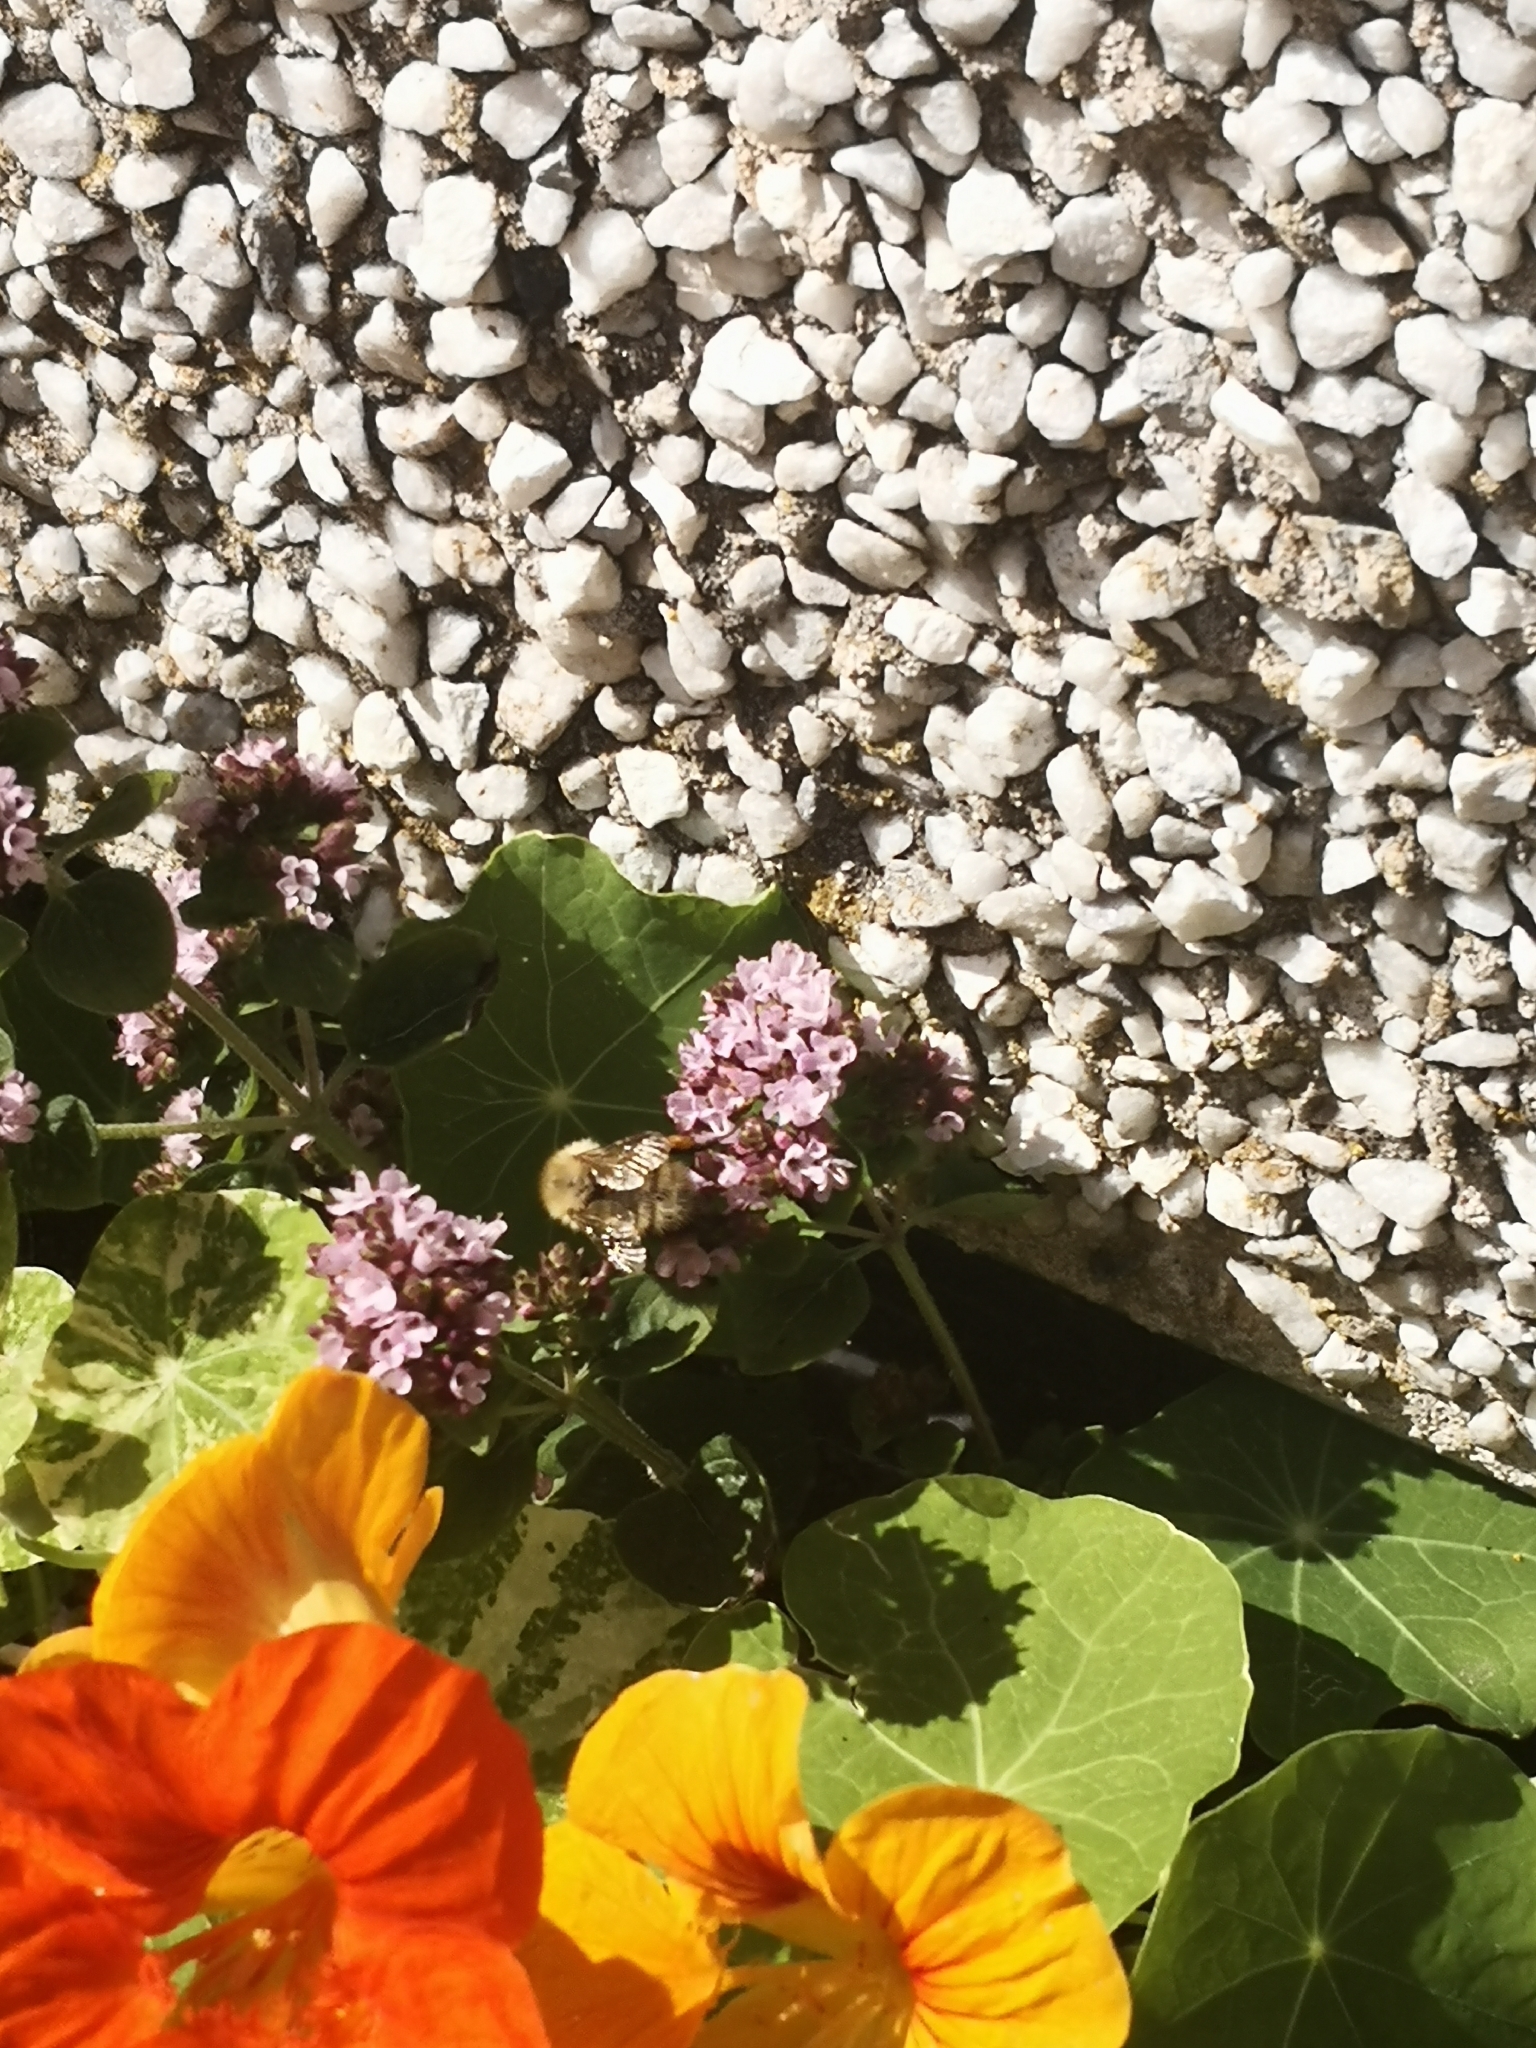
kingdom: Animalia
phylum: Arthropoda
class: Insecta
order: Hymenoptera
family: Apidae
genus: Bombus
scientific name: Bombus pascuorum
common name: Common carder bee
